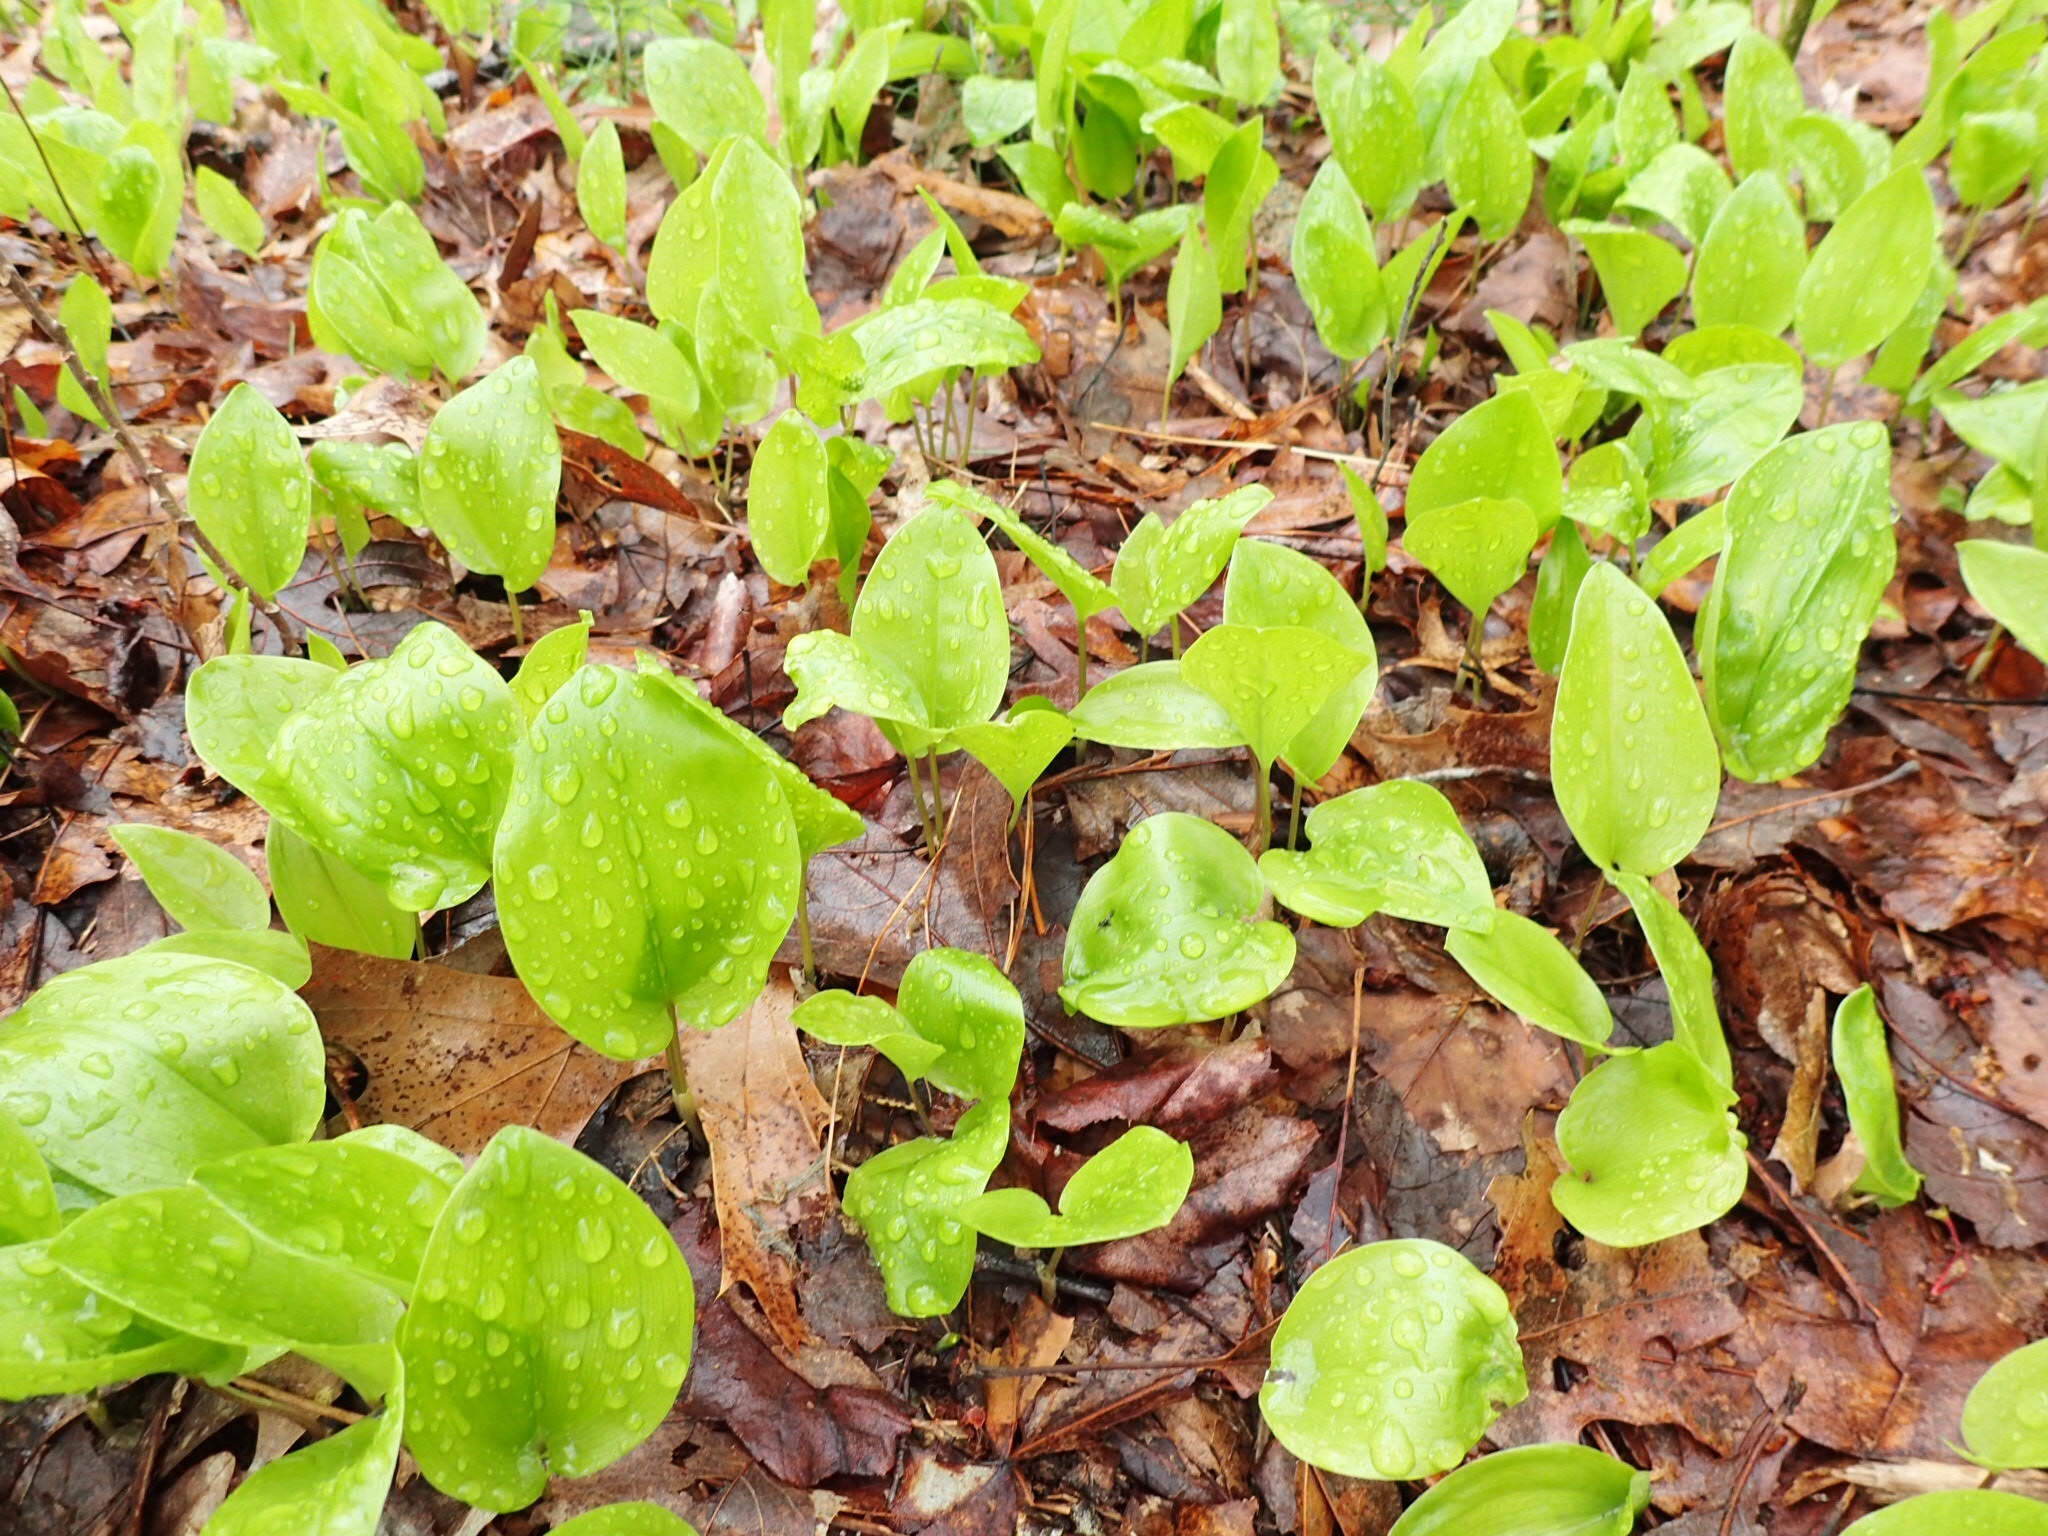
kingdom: Plantae
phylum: Tracheophyta
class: Liliopsida
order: Asparagales
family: Asparagaceae
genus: Maianthemum
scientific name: Maianthemum canadense
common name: False lily-of-the-valley
